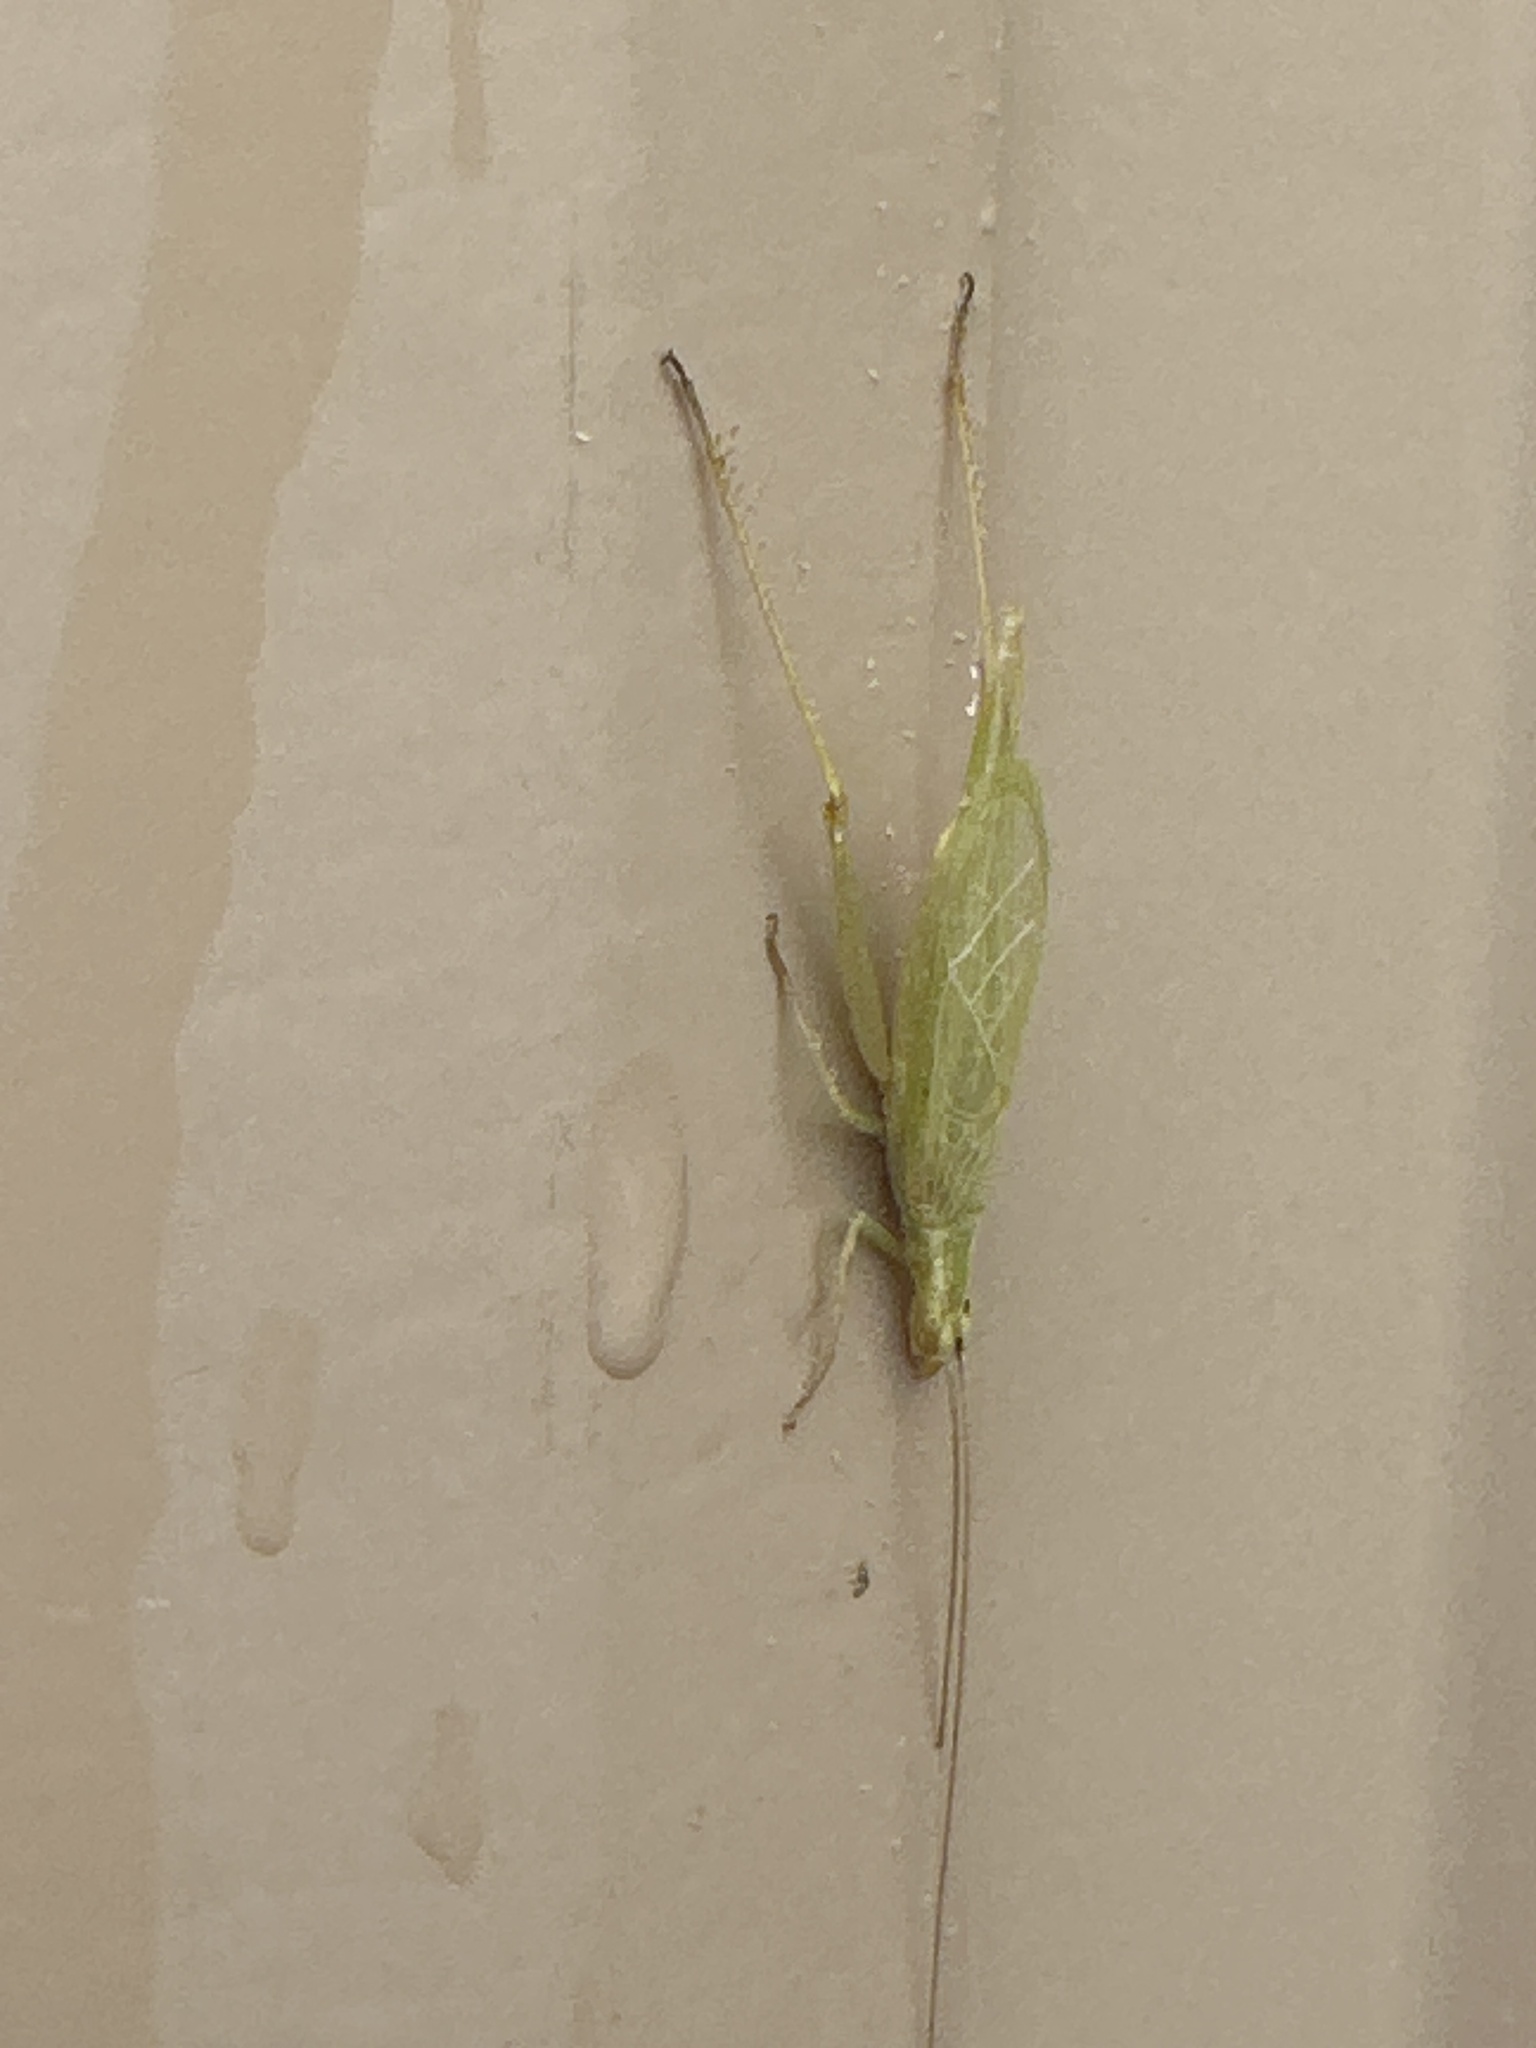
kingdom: Animalia
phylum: Arthropoda
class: Insecta
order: Orthoptera
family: Gryllidae
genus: Oecanthus
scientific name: Oecanthus argentinus
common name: Prairie tree cricket
